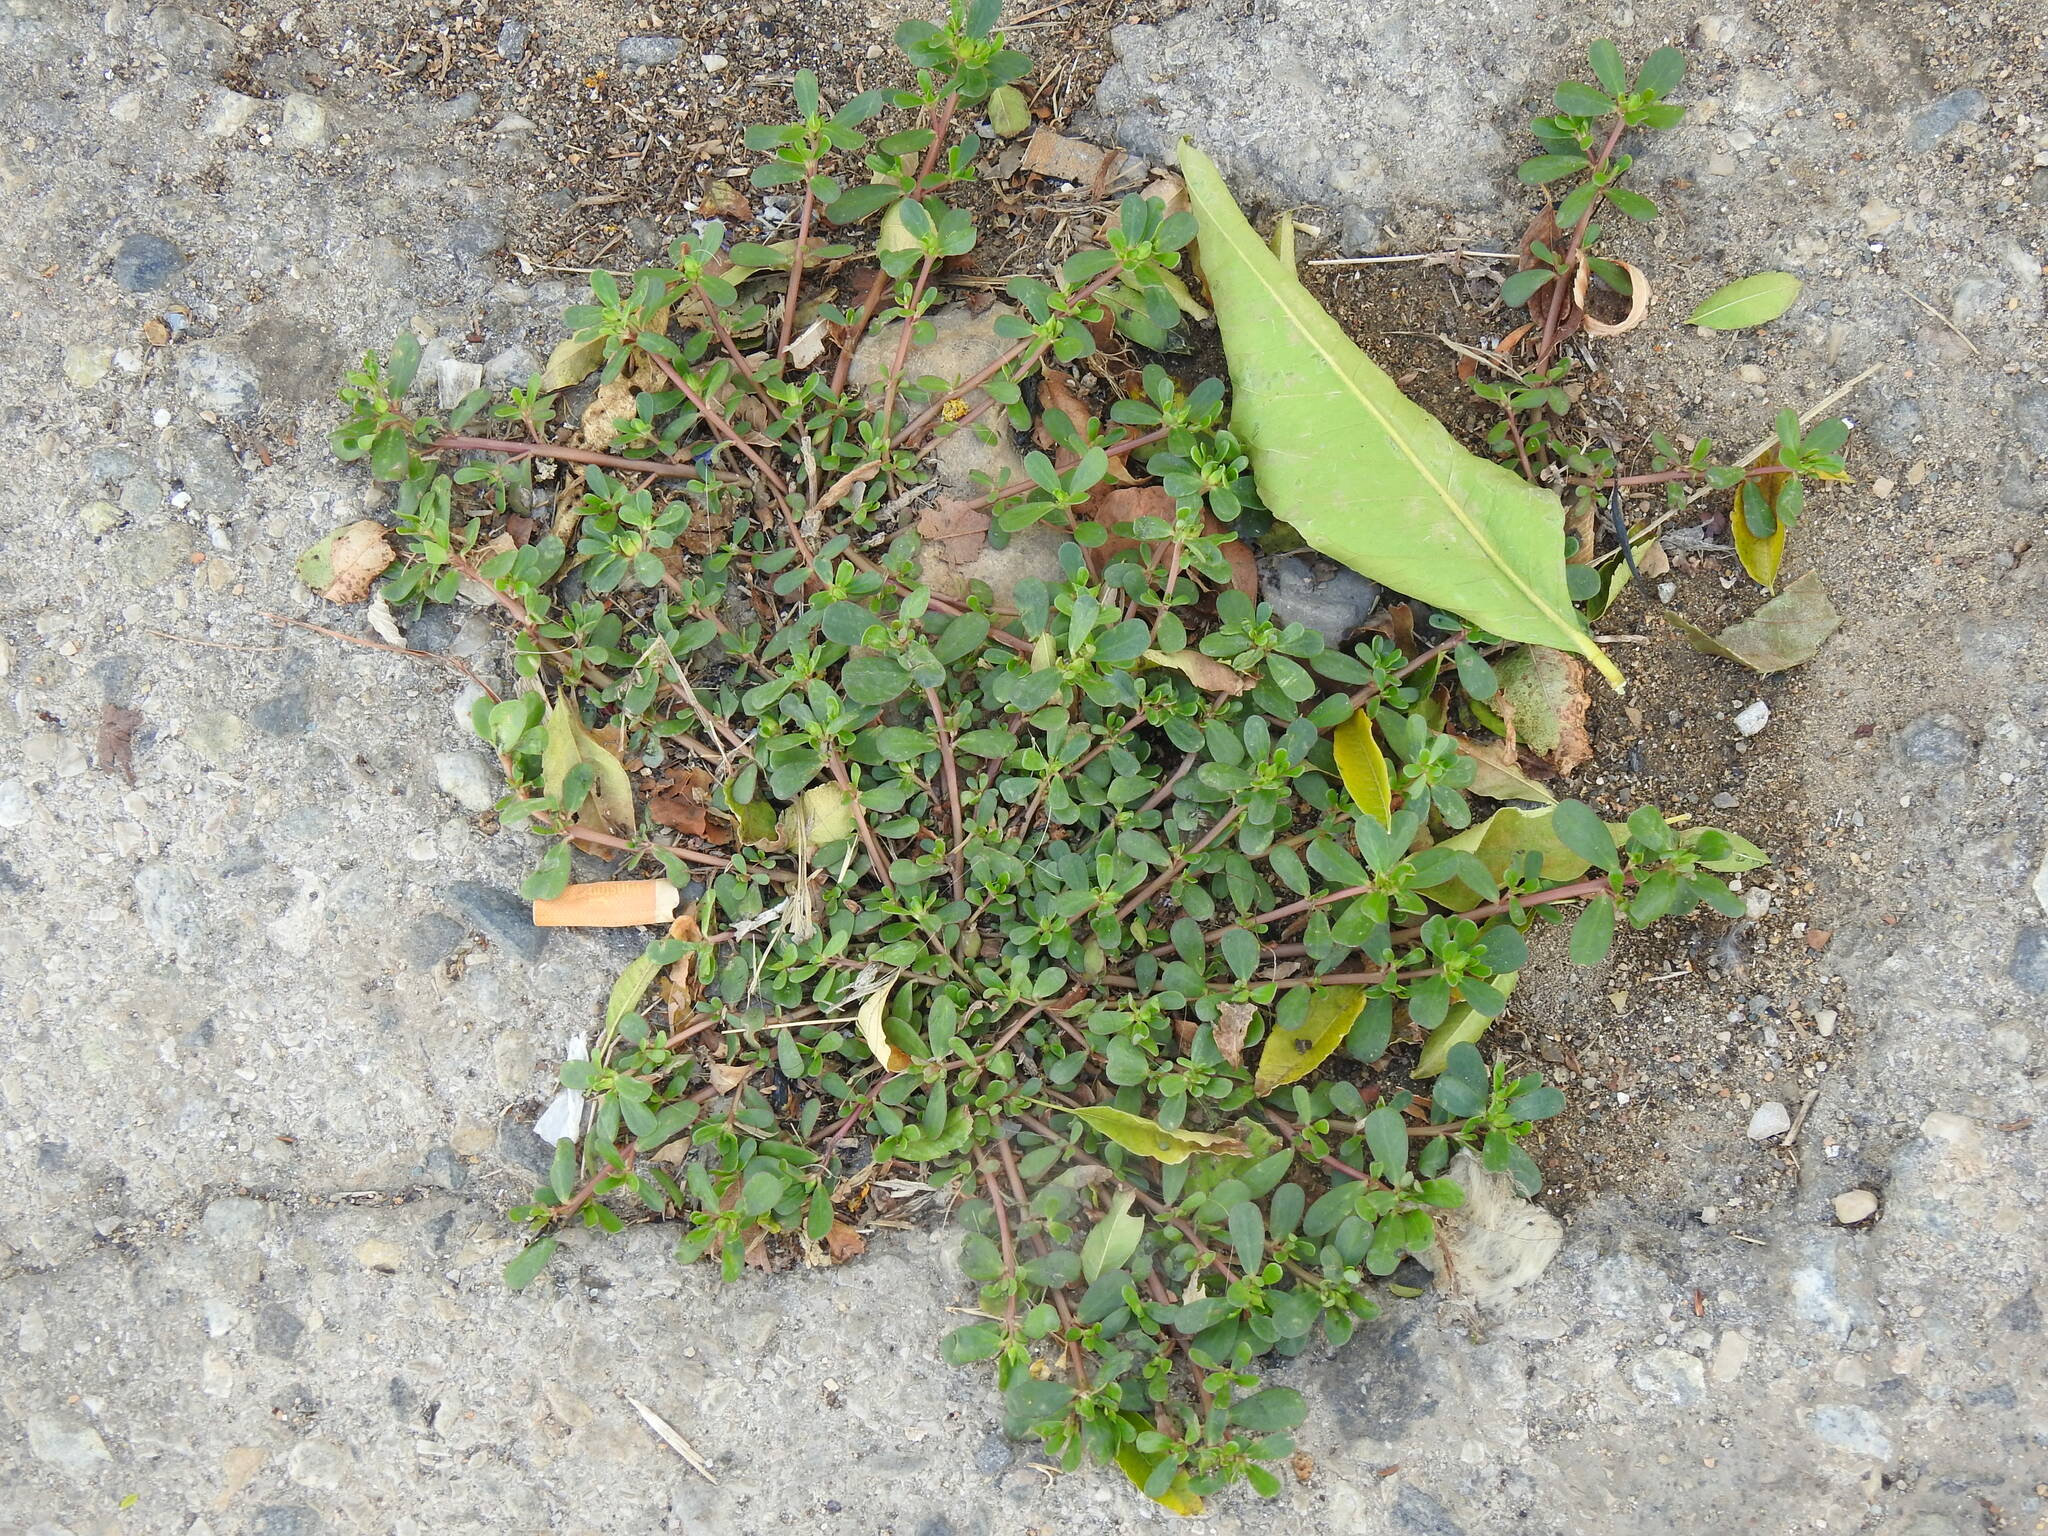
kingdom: Plantae
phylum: Tracheophyta
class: Magnoliopsida
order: Caryophyllales
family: Portulacaceae
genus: Portulaca
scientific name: Portulaca oleracea
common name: Common purslane
